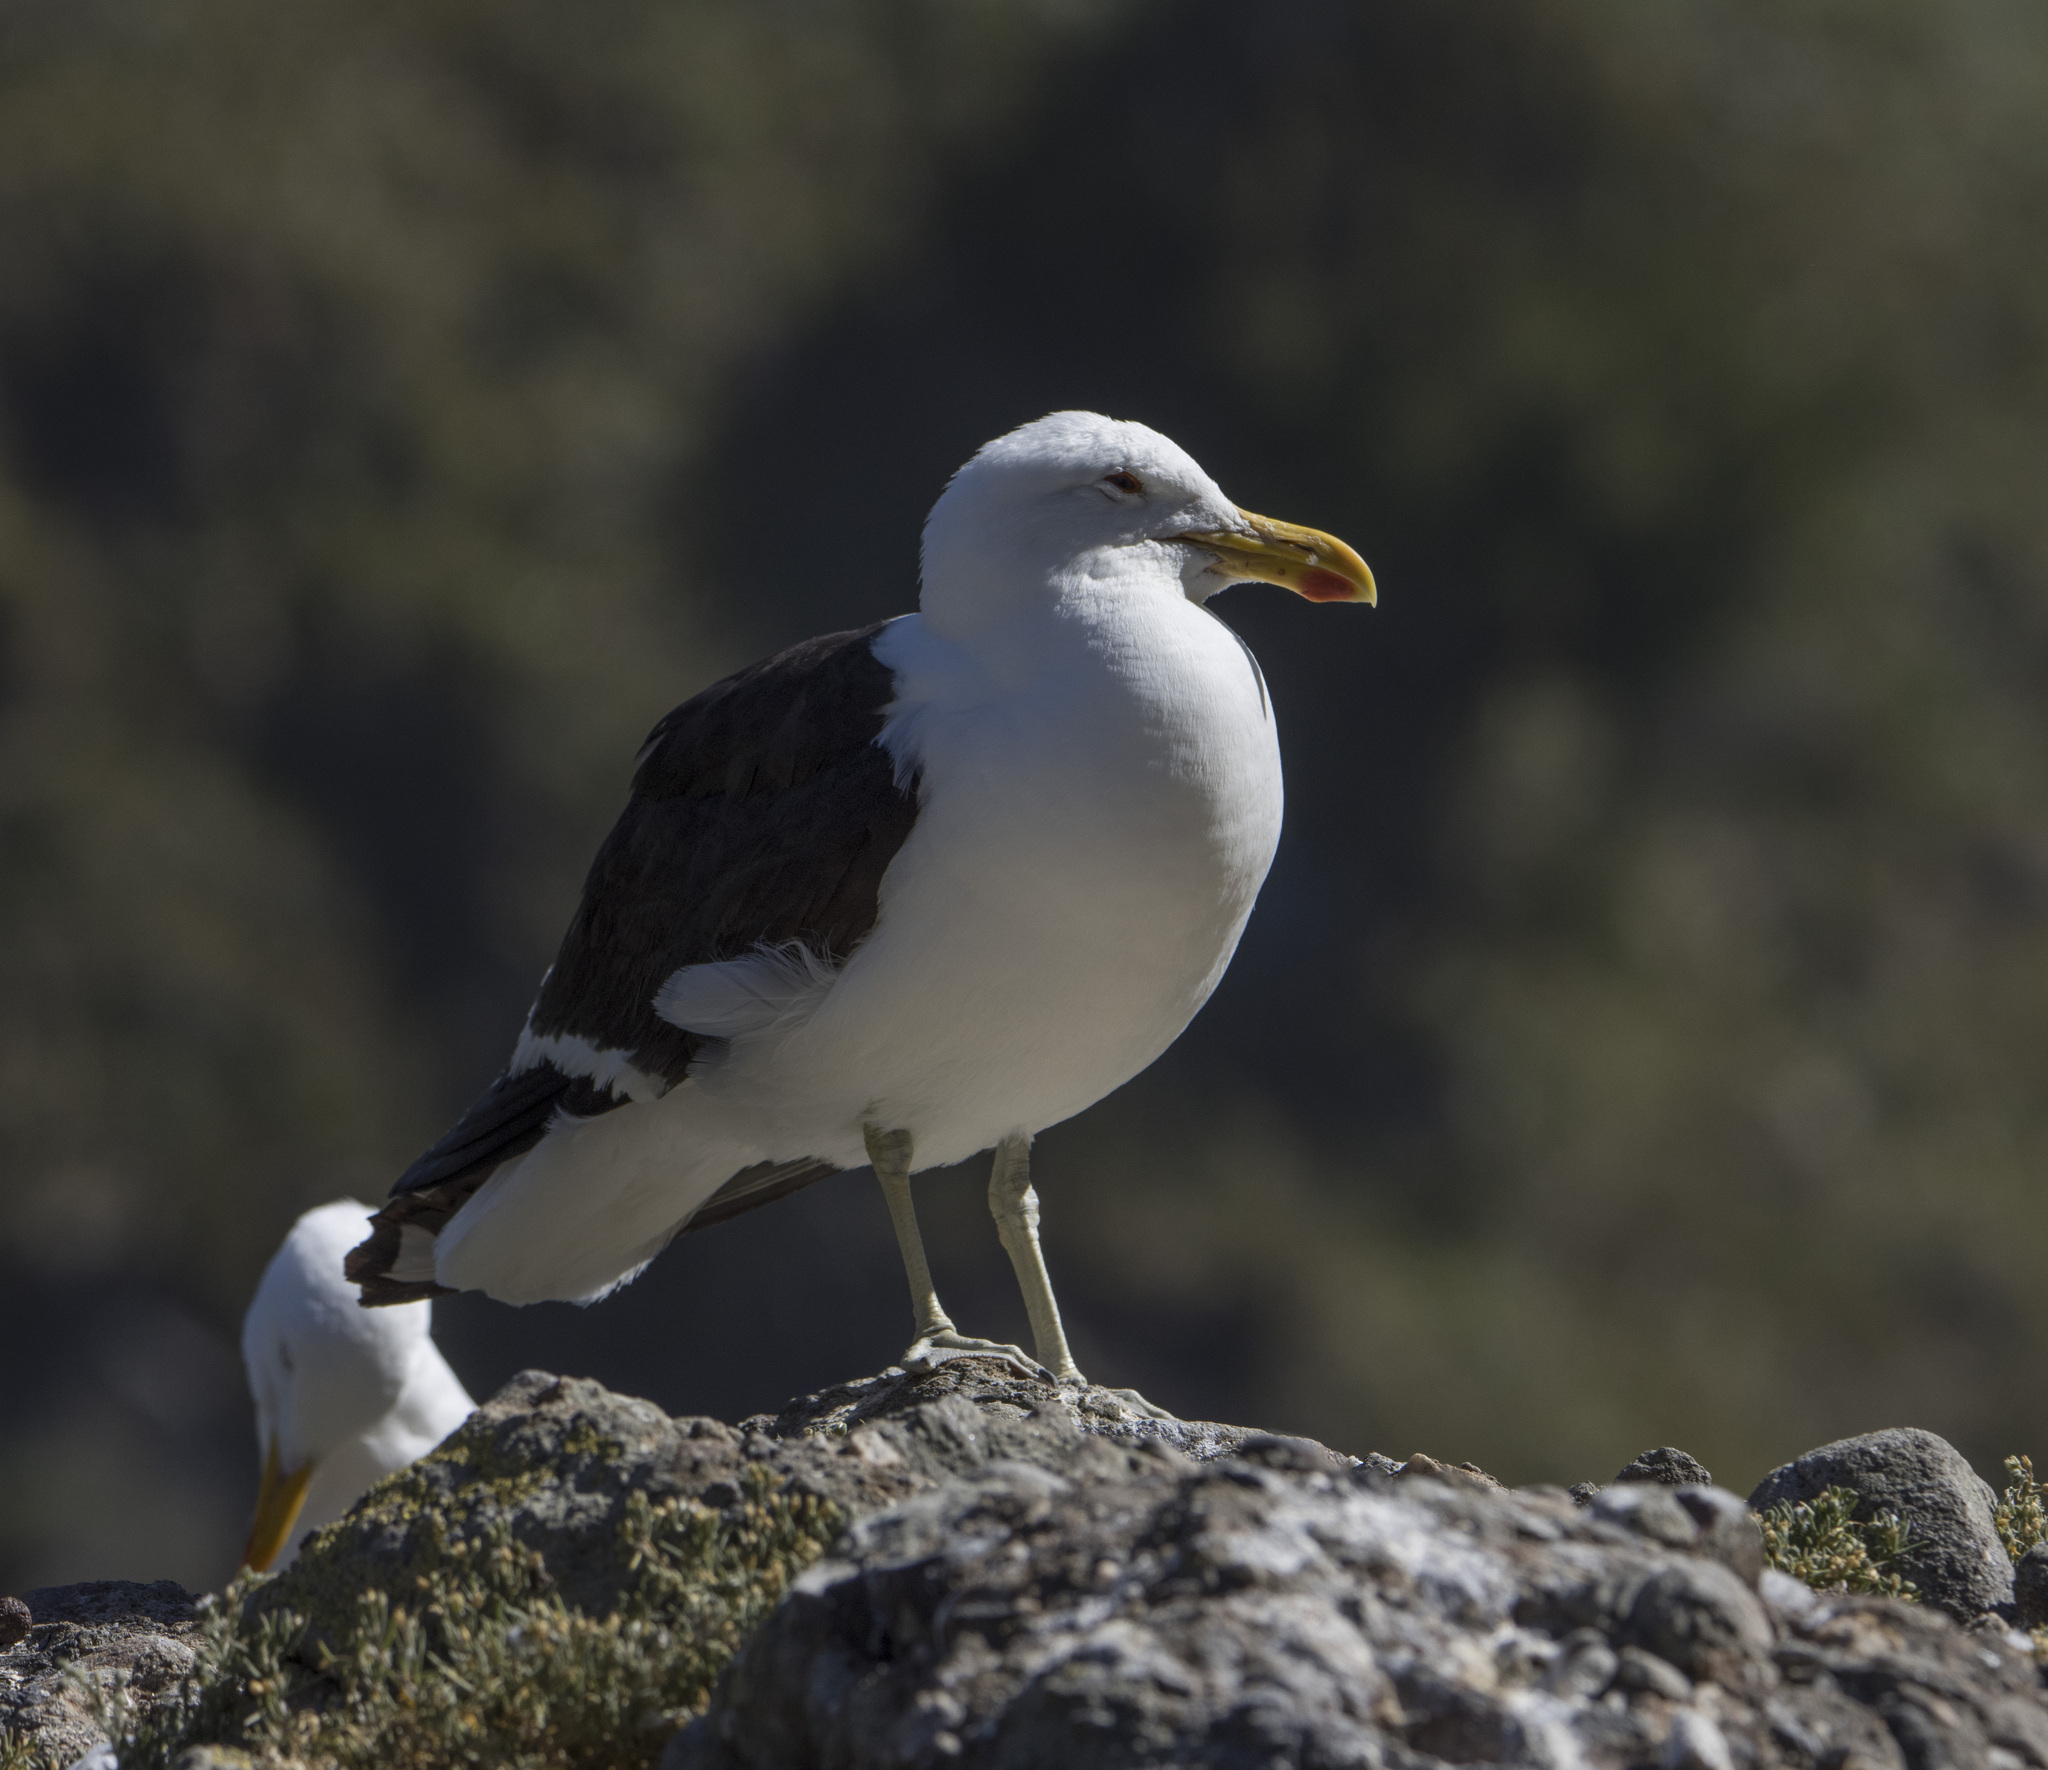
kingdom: Animalia
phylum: Chordata
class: Aves
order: Charadriiformes
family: Laridae
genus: Larus
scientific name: Larus dominicanus
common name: Kelp gull
